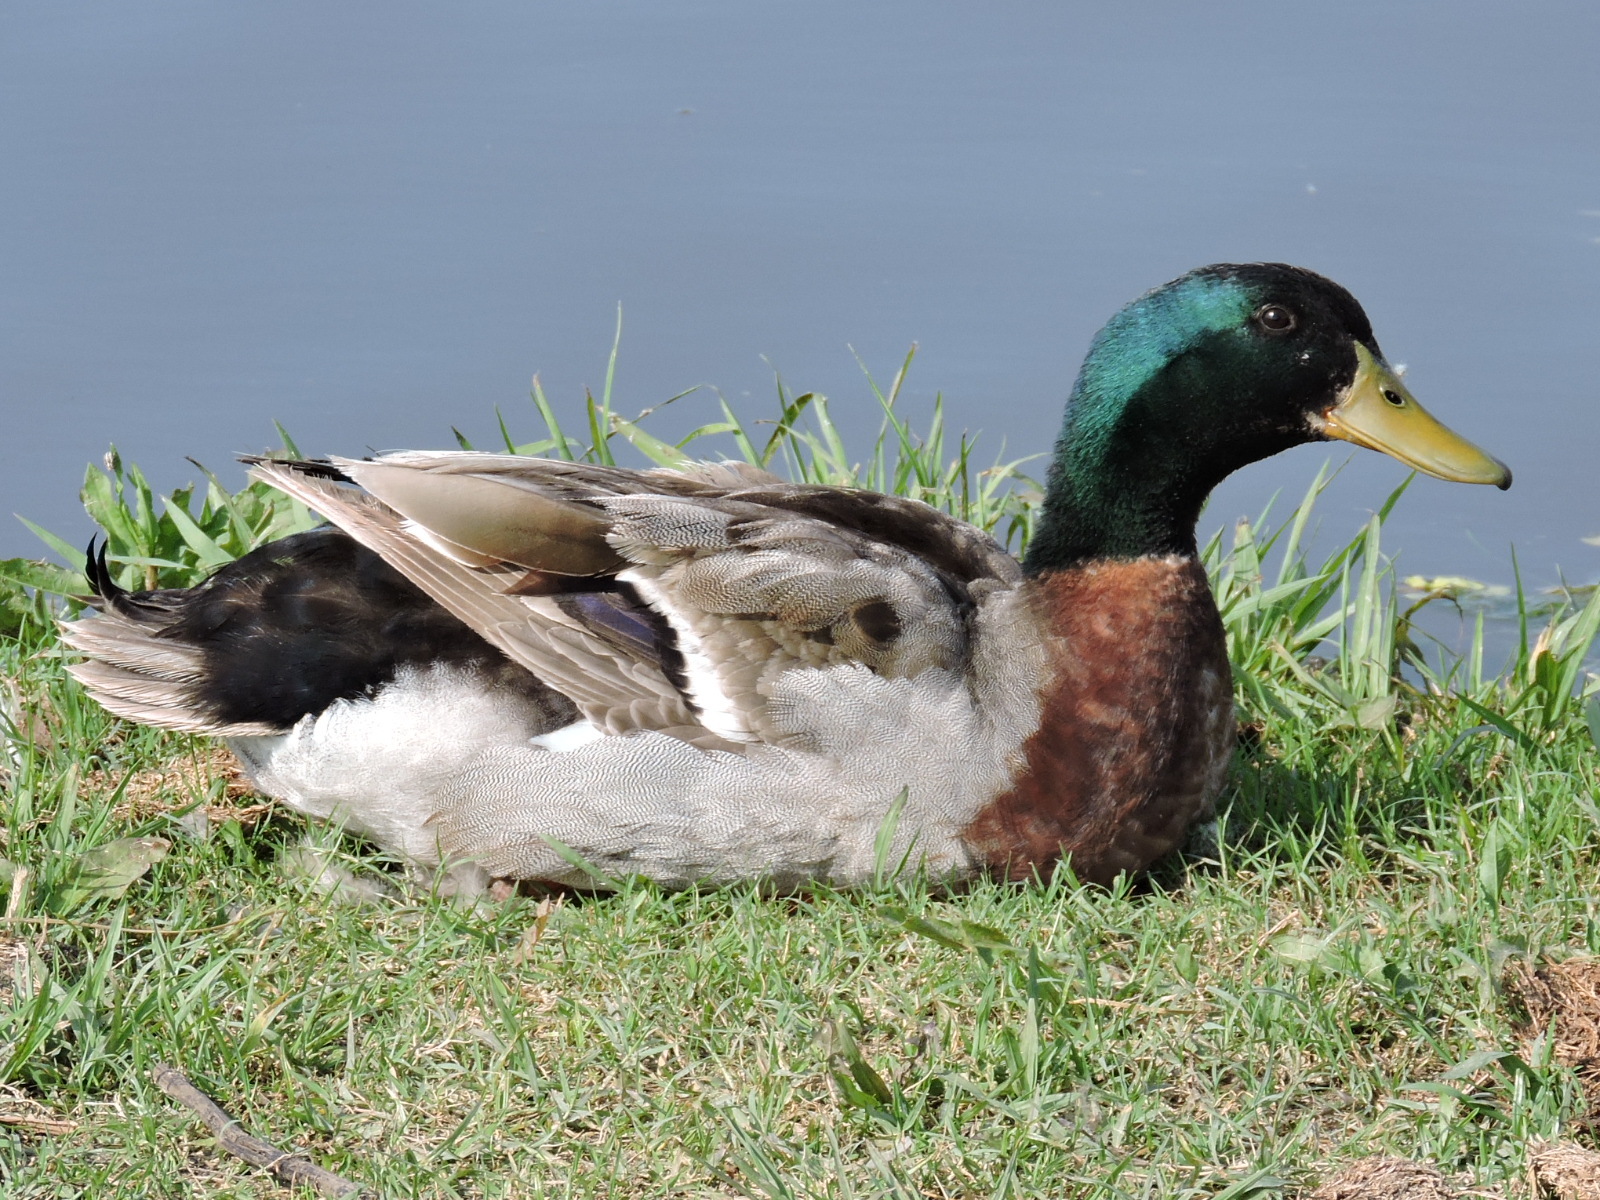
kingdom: Animalia
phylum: Chordata
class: Aves
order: Anseriformes
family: Anatidae
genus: Anas
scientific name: Anas platyrhynchos
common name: Mallard
